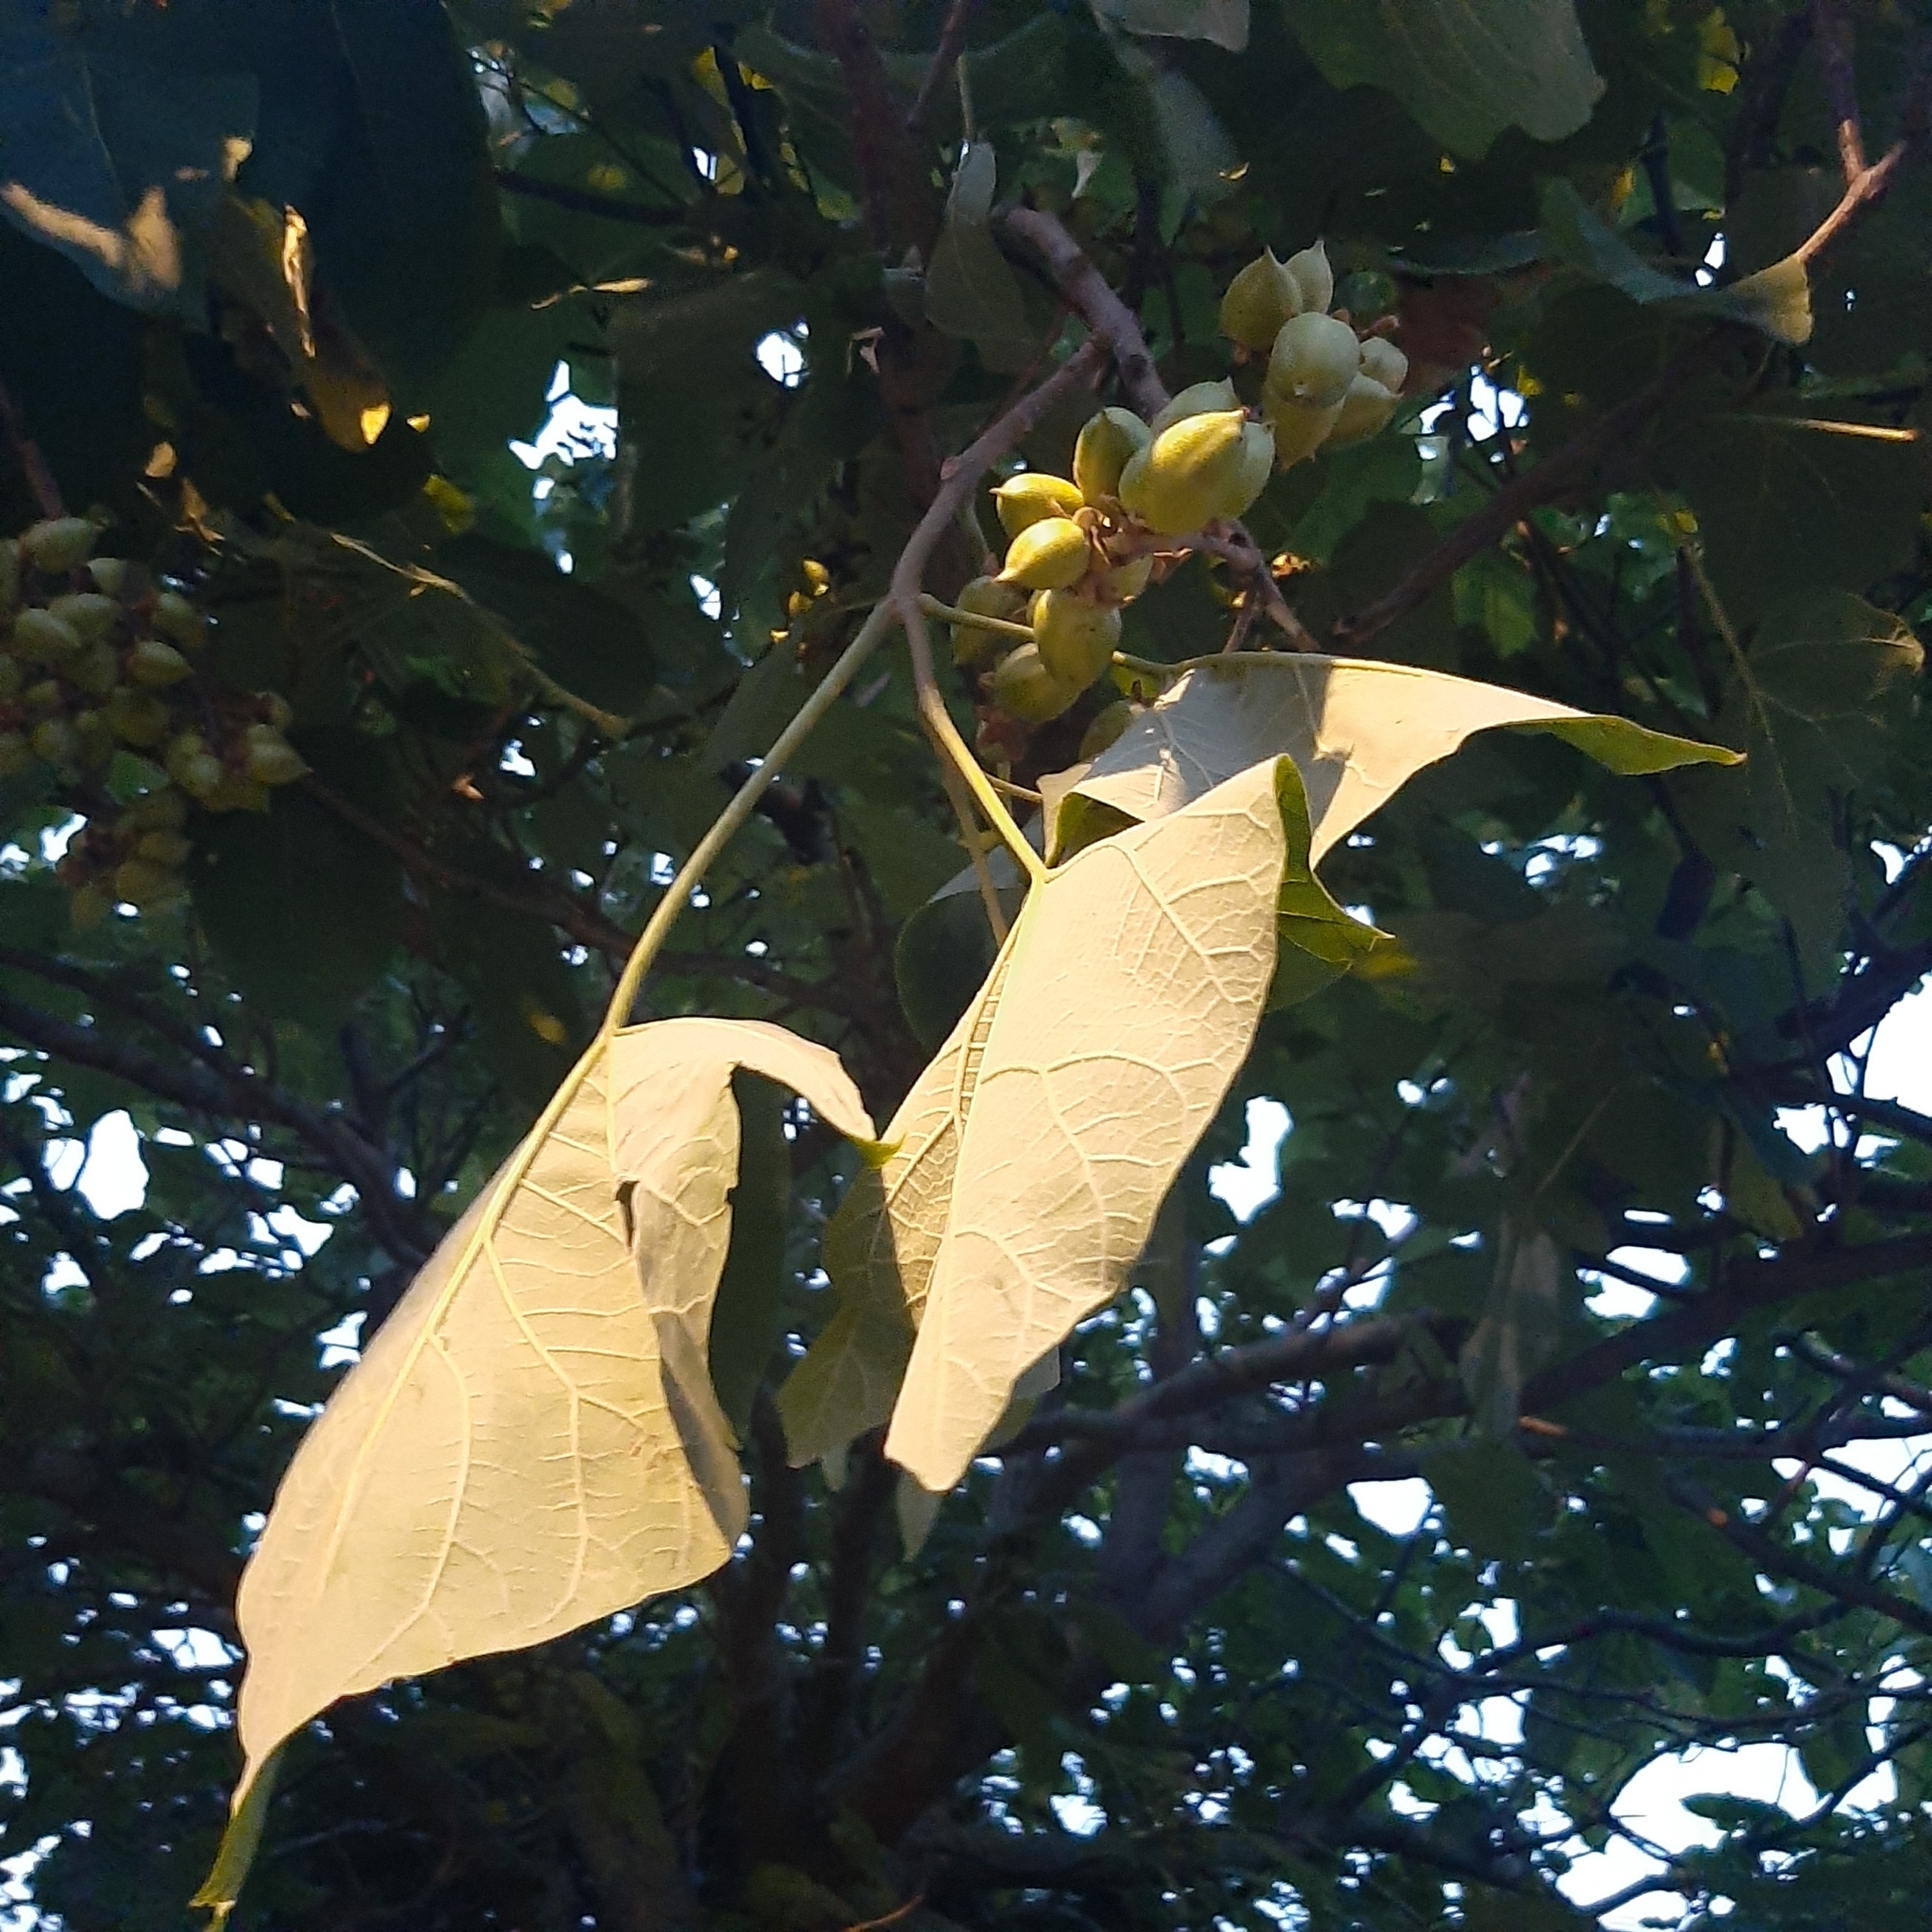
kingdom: Plantae
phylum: Tracheophyta
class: Magnoliopsida
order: Lamiales
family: Paulowniaceae
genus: Paulownia
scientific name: Paulownia tomentosa
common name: Foxglove-tree
